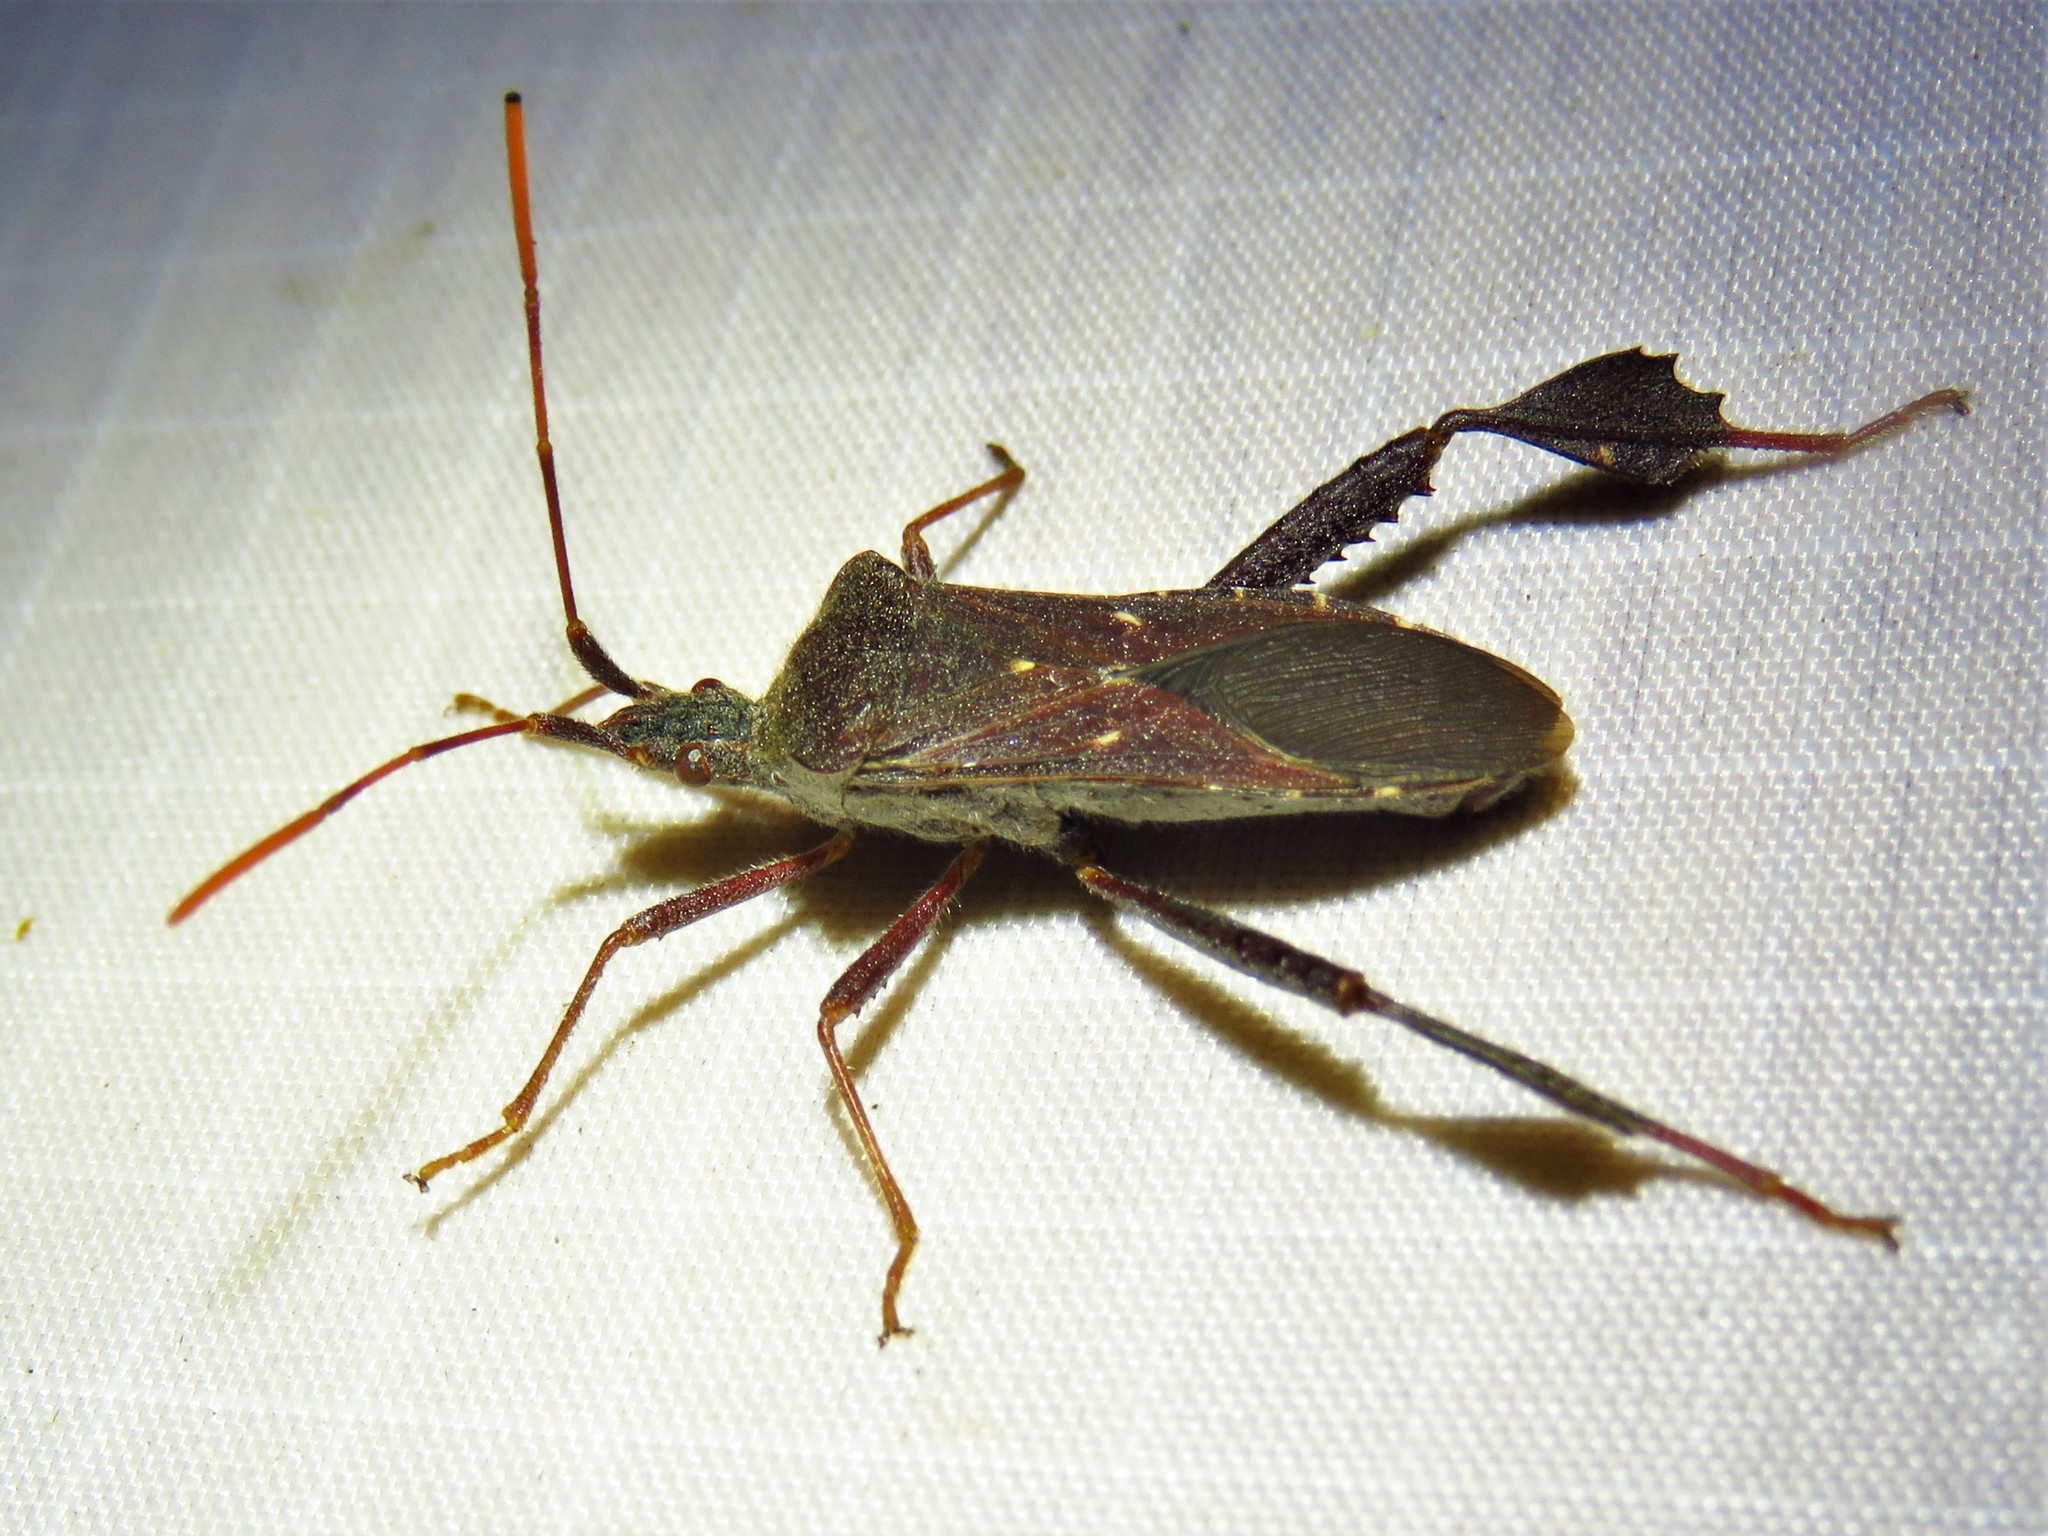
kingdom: Animalia
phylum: Arthropoda
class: Insecta
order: Hemiptera
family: Coreidae
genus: Leptoglossus
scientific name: Leptoglossus oppositus
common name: Northern leaf-footed bug
